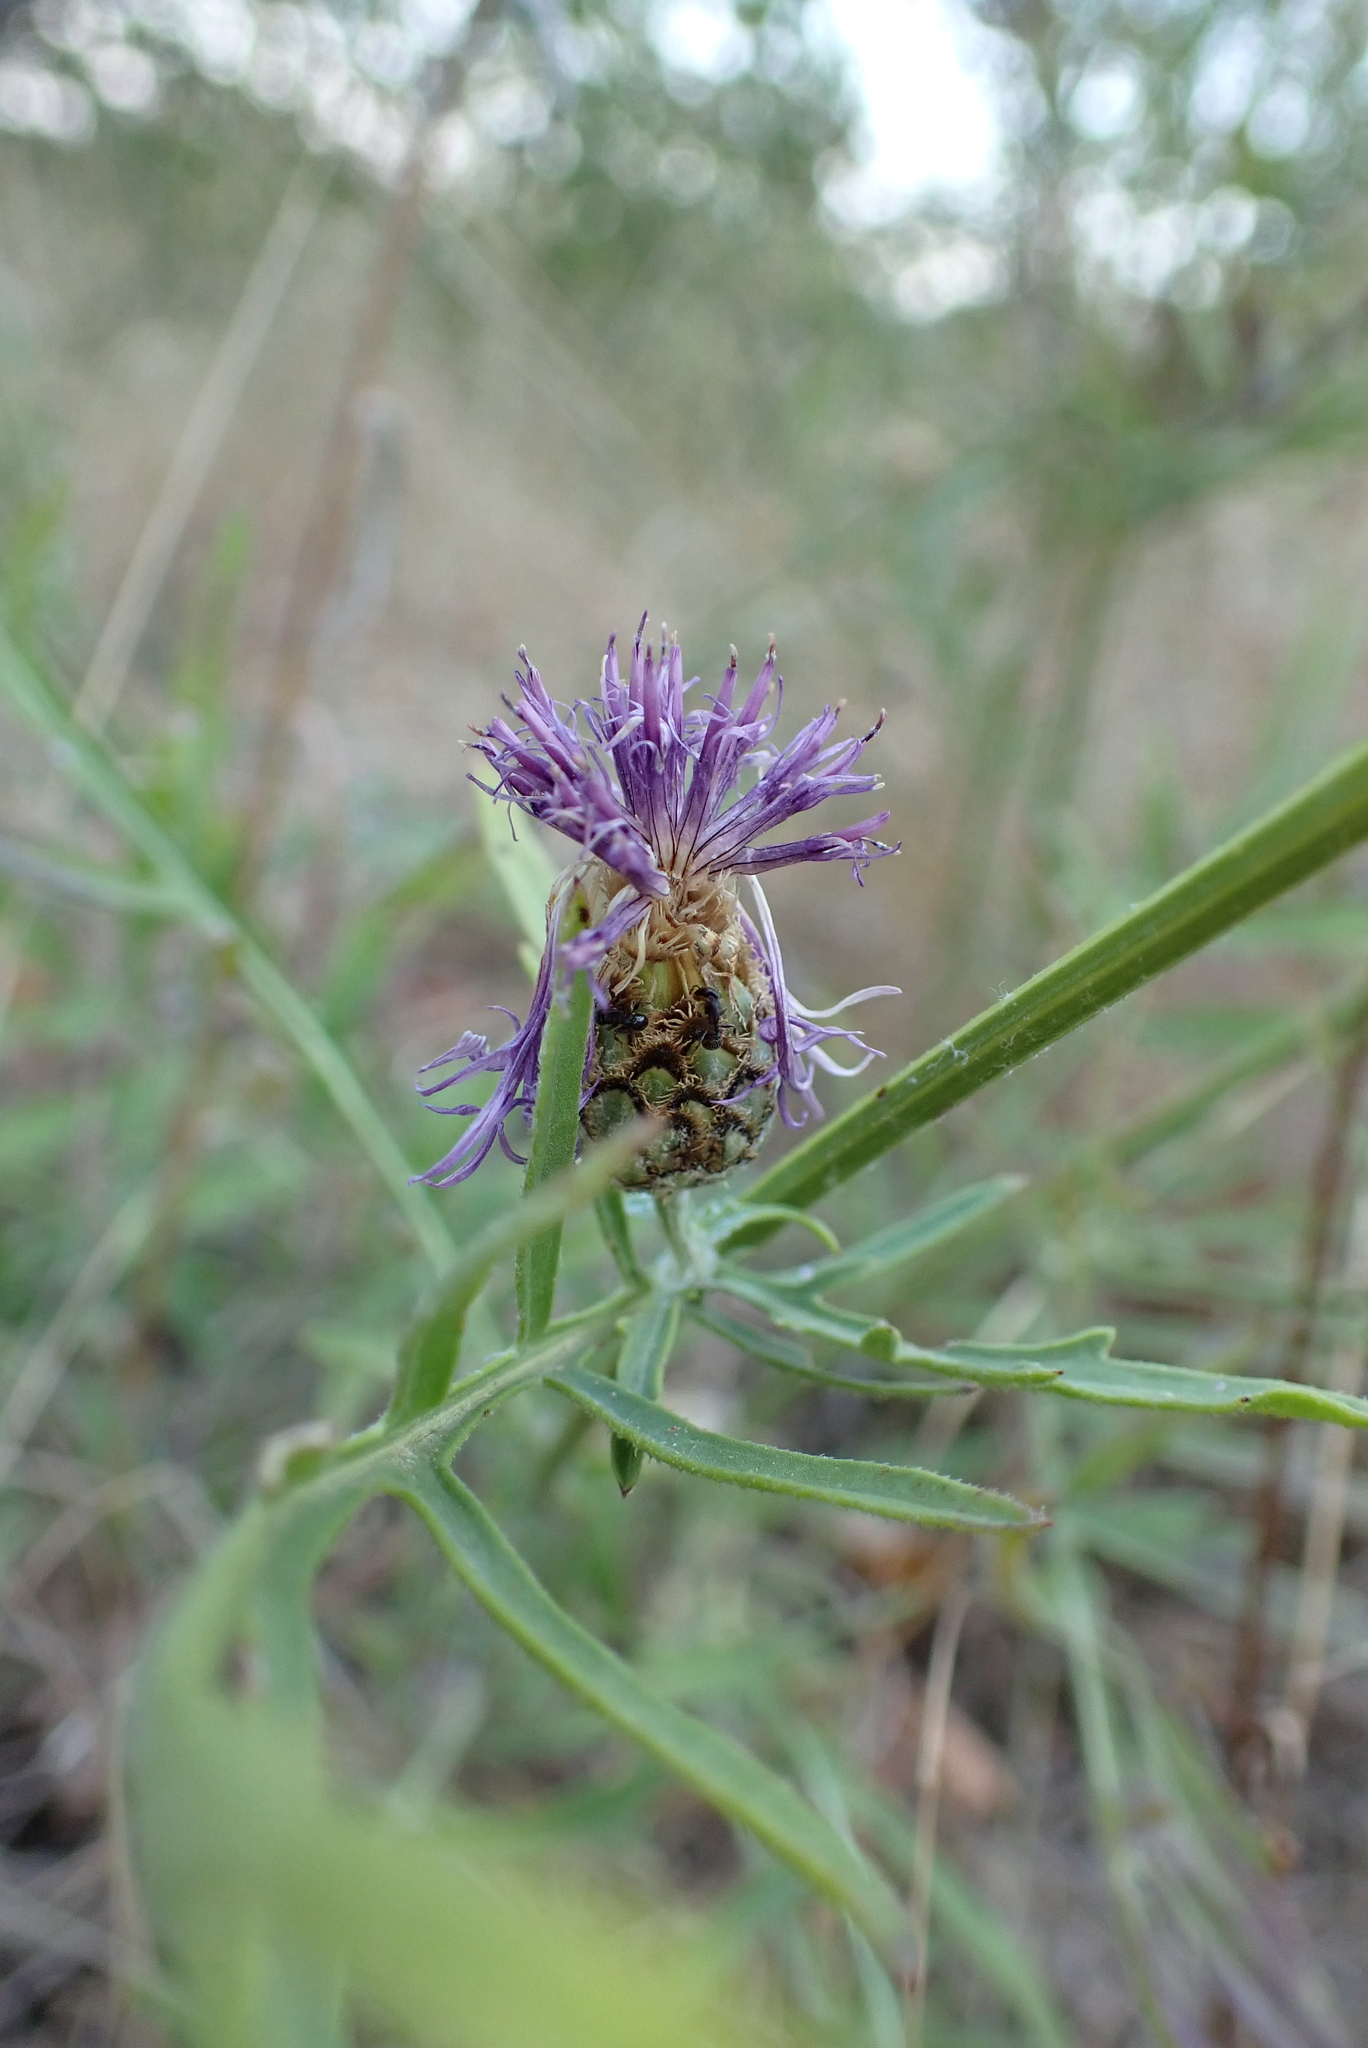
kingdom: Plantae
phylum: Tracheophyta
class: Magnoliopsida
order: Asterales
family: Asteraceae
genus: Centaurea
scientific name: Centaurea scabiosa
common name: Greater knapweed
